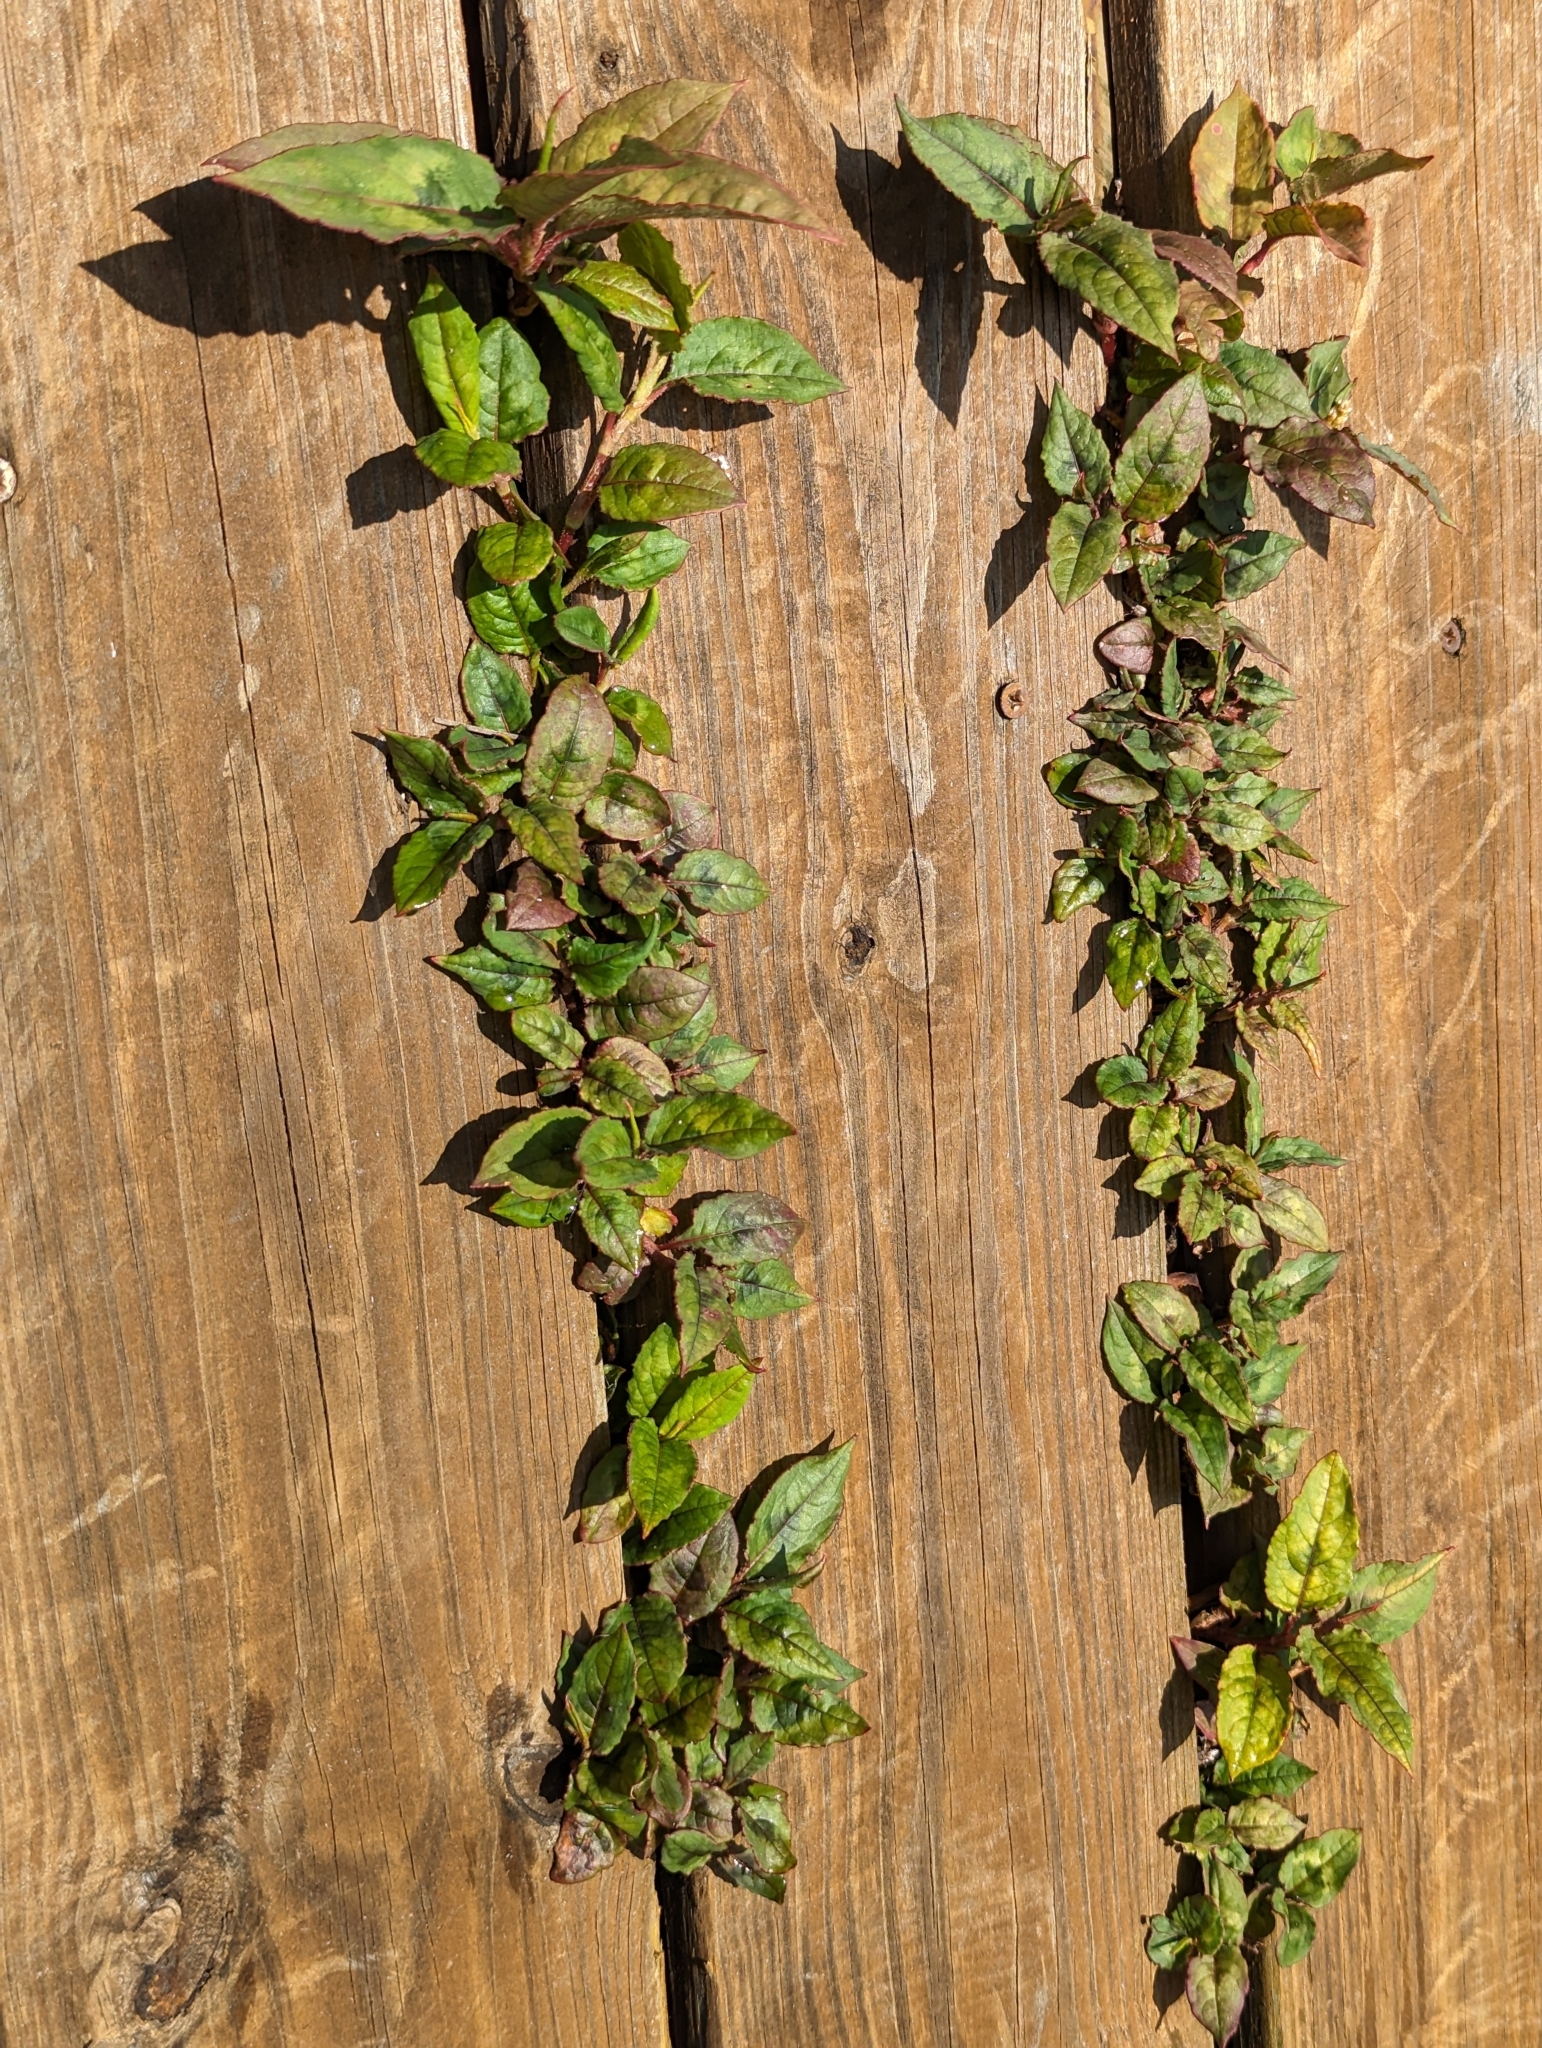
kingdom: Plantae
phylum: Tracheophyta
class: Magnoliopsida
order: Caryophyllales
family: Polygonaceae
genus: Persicaria
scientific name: Persicaria chinensis
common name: Chinese knotweed
